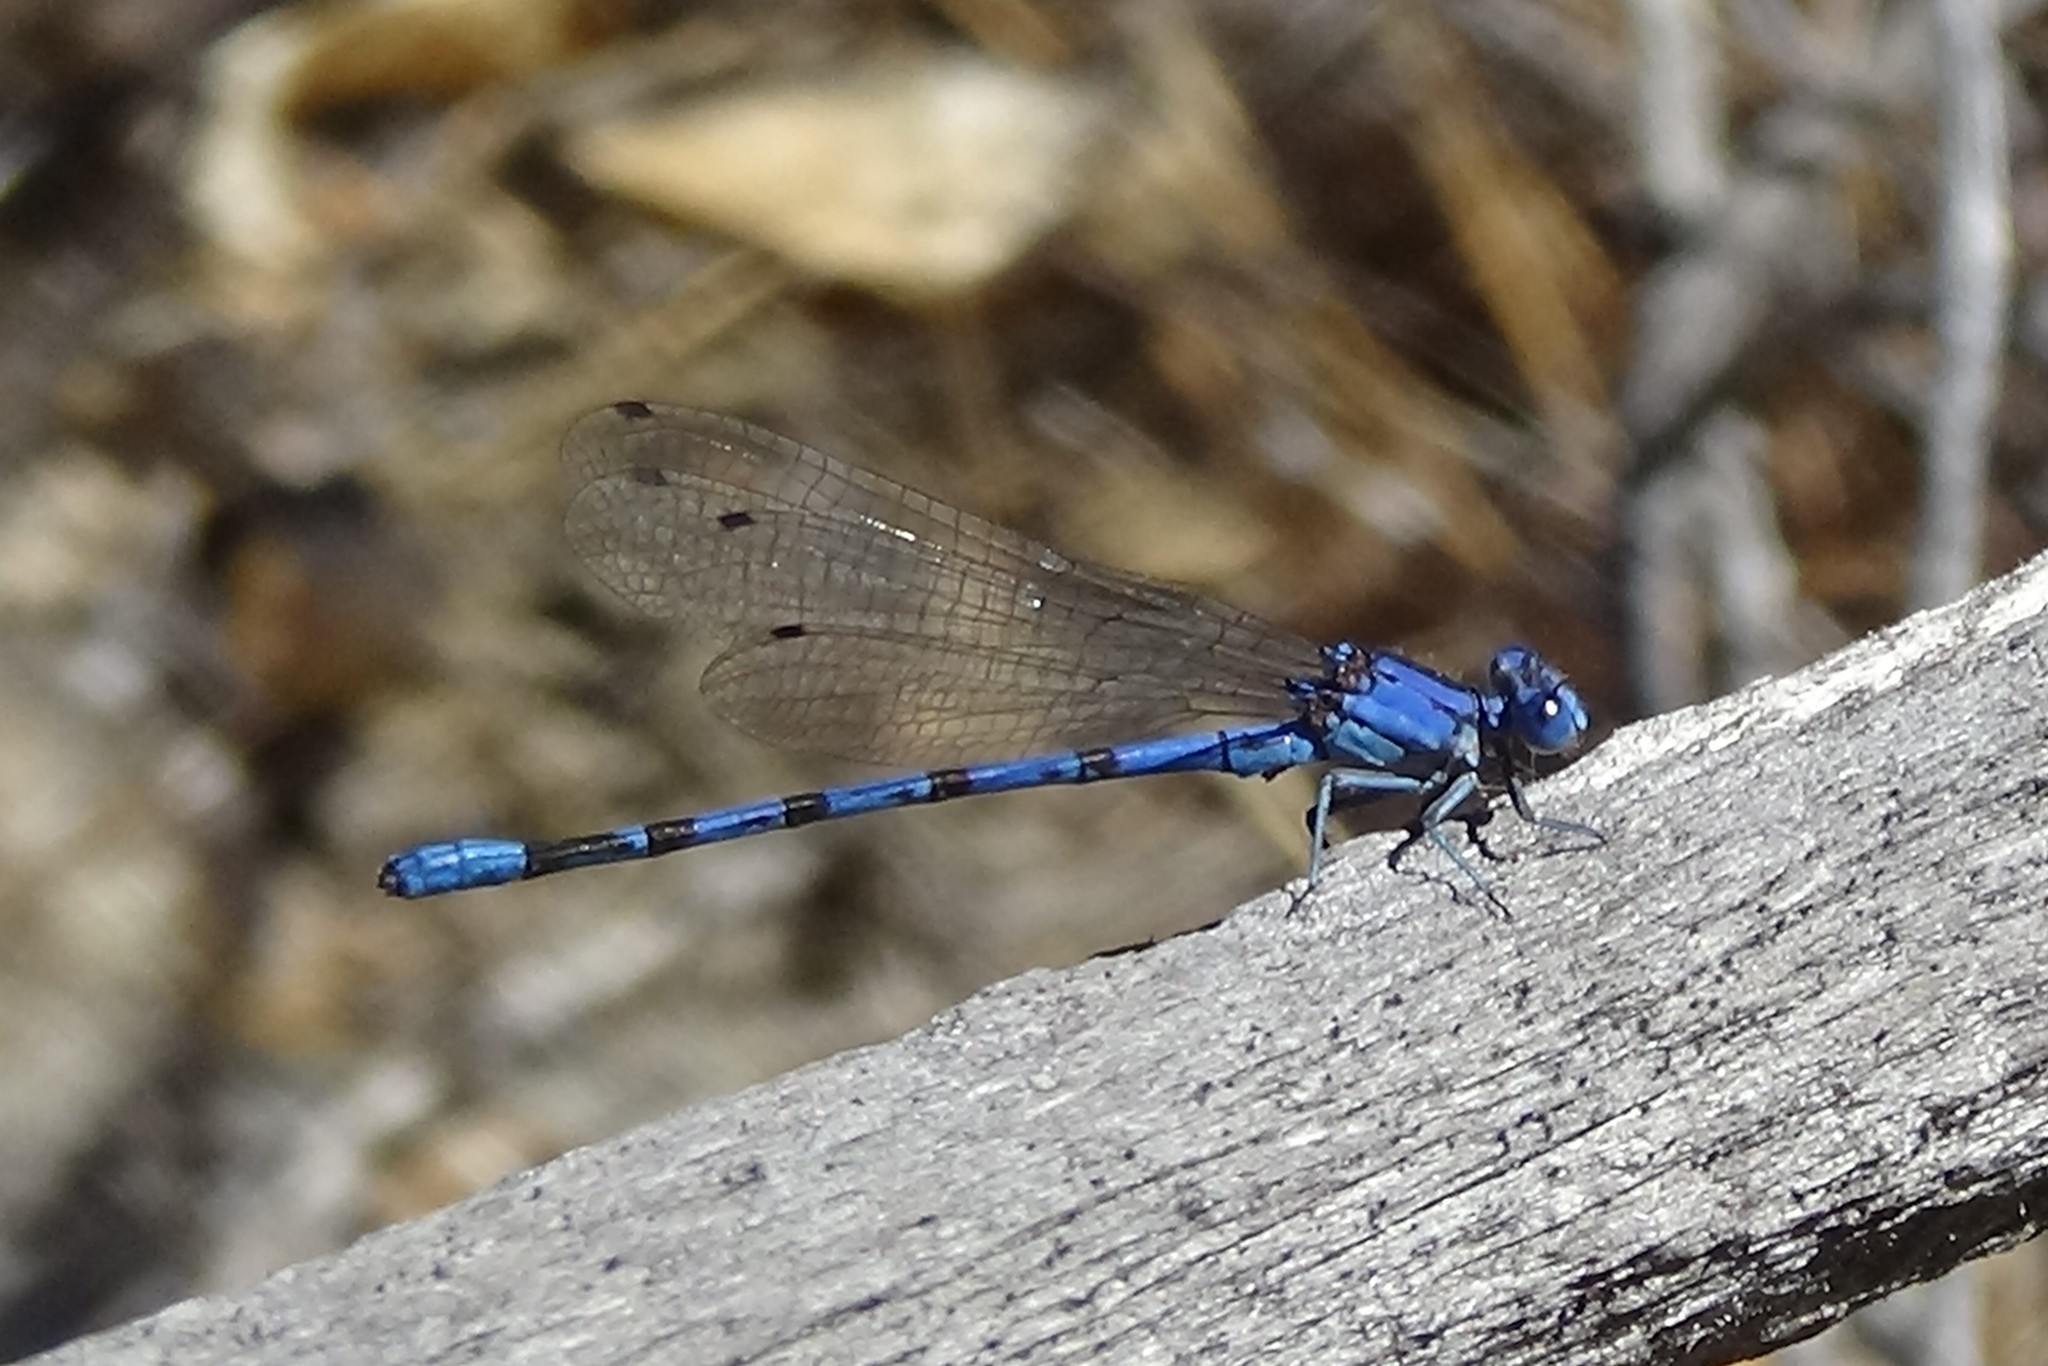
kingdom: Animalia
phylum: Arthropoda
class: Insecta
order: Odonata
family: Coenagrionidae
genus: Argia
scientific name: Argia vivida
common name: Vivid dancer
